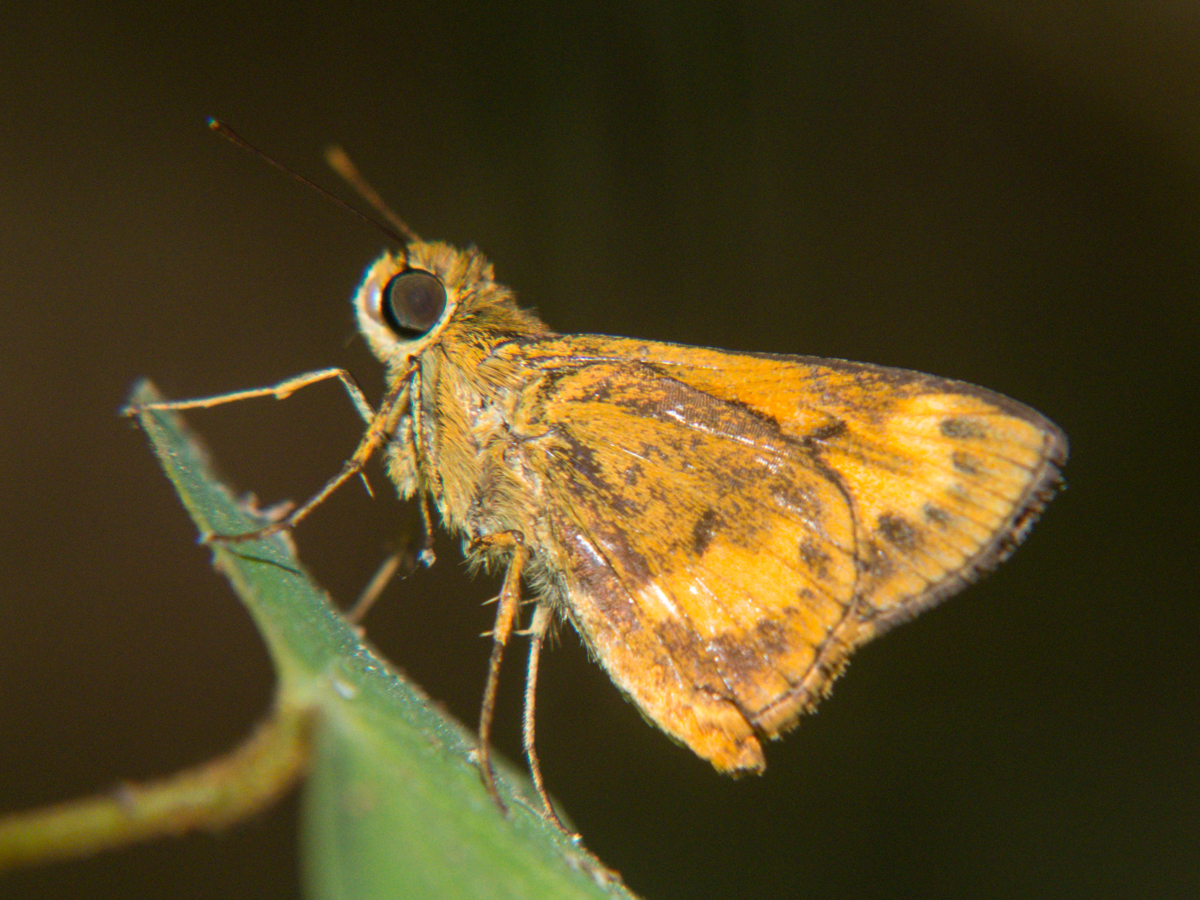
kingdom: Animalia
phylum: Arthropoda
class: Insecta
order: Lepidoptera
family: Hesperiidae
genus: Oriens
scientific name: Oriens gola
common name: Common dartlet
